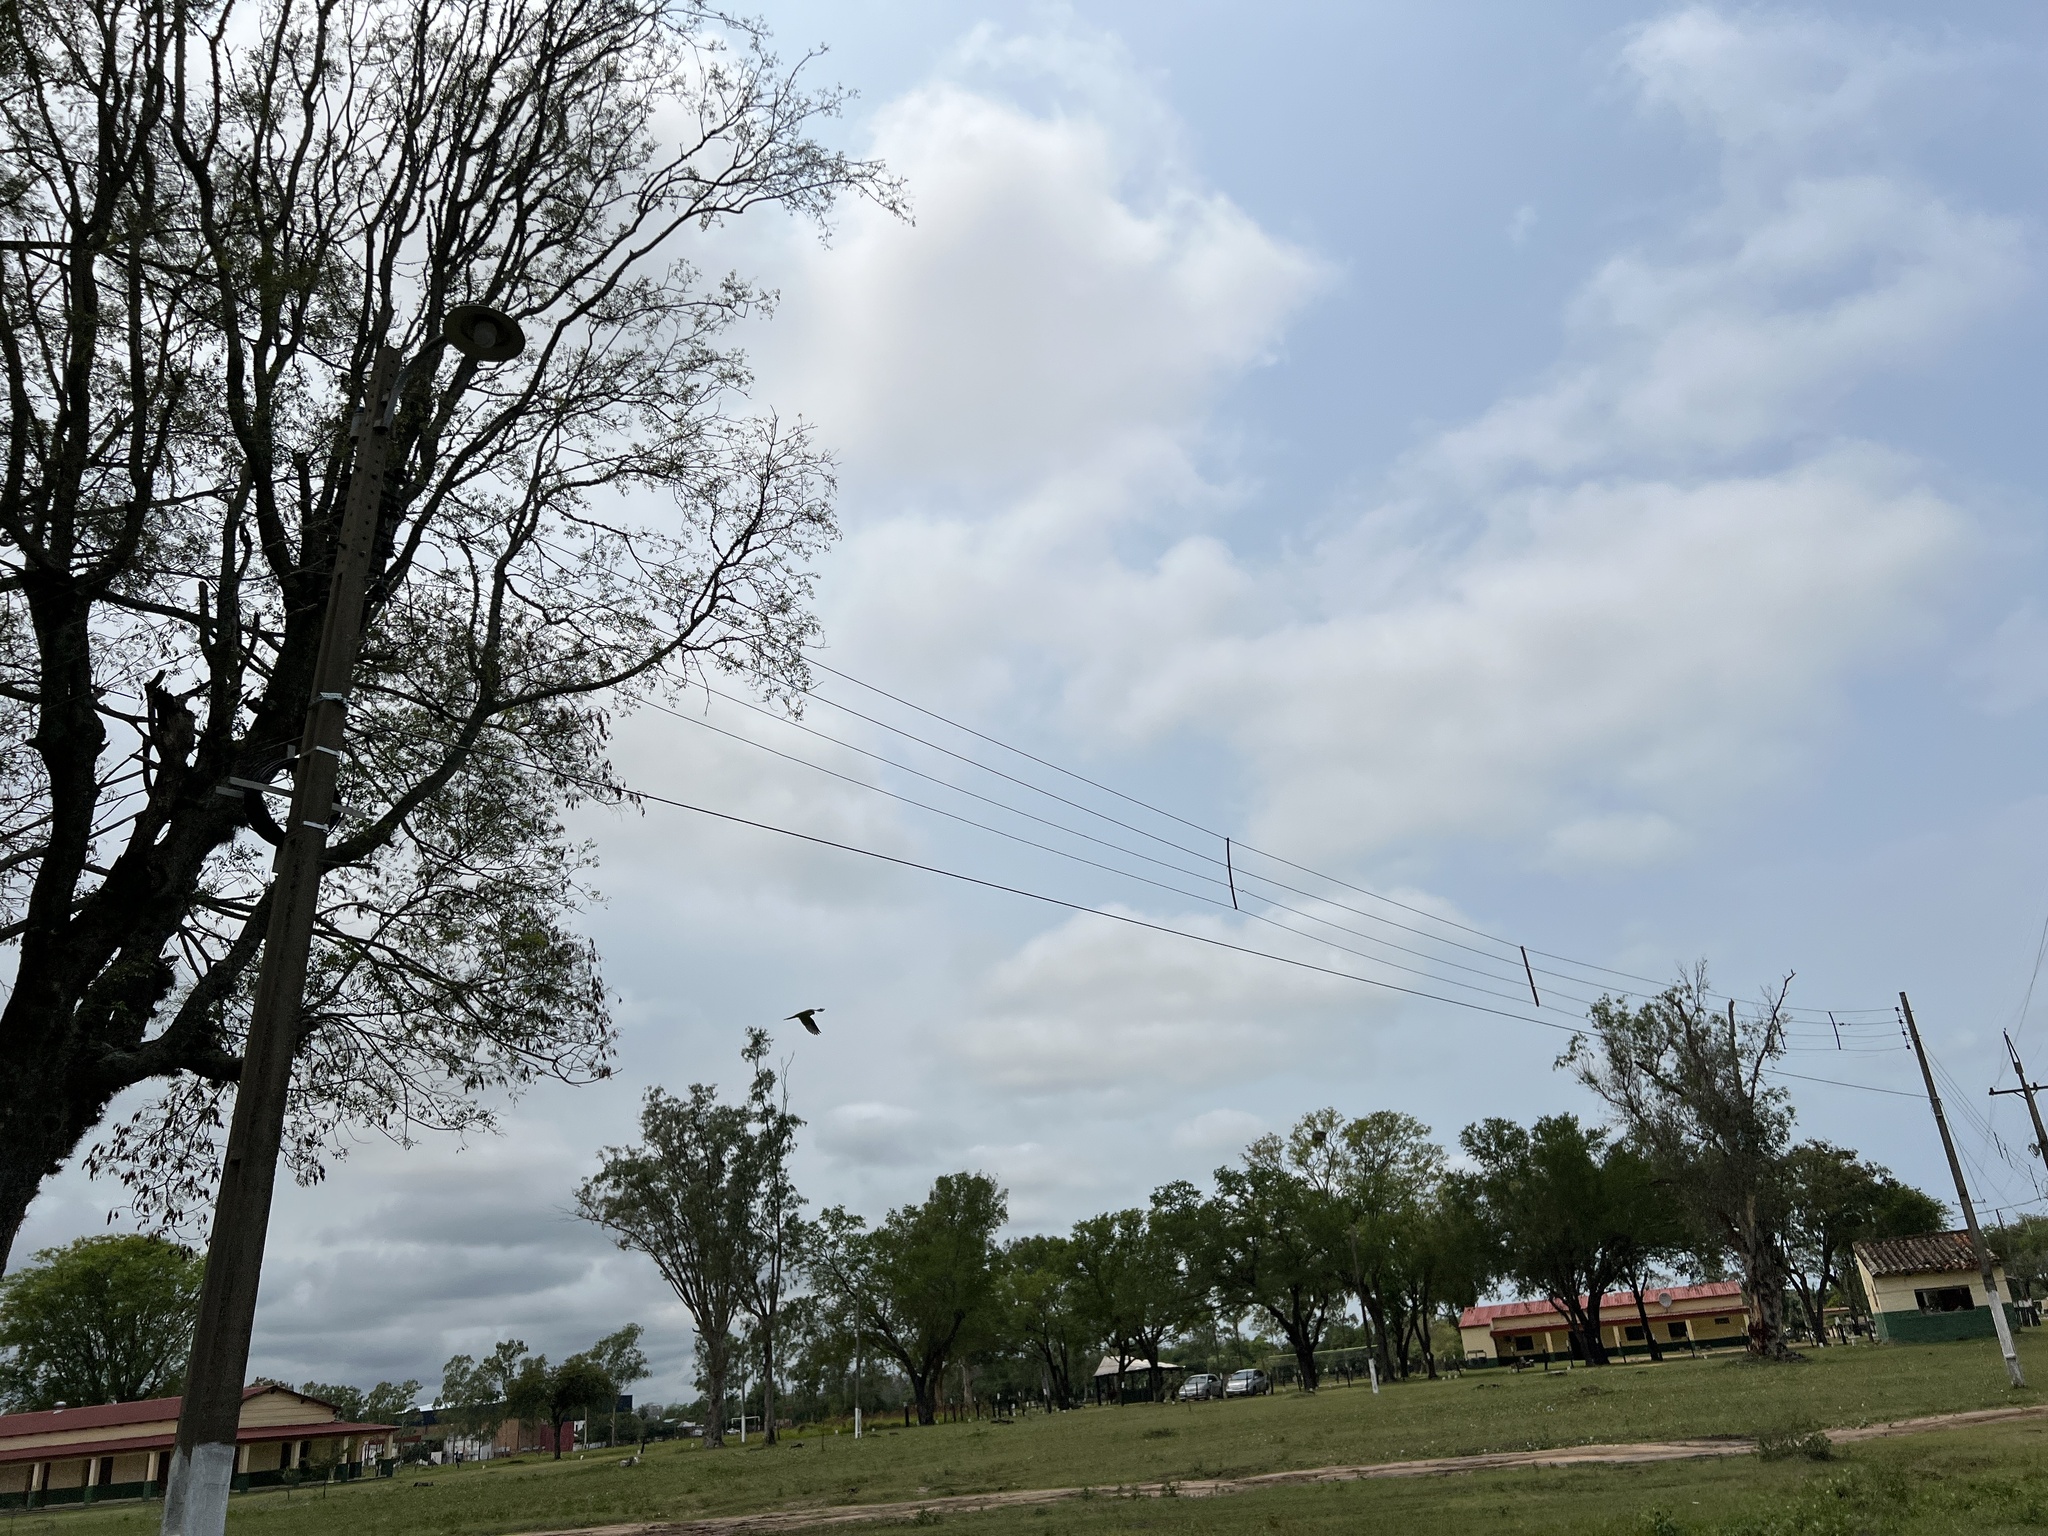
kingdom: Animalia
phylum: Chordata
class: Aves
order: Psittaciformes
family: Psittacidae
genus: Myiopsitta
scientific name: Myiopsitta monachus
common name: Monk parakeet
